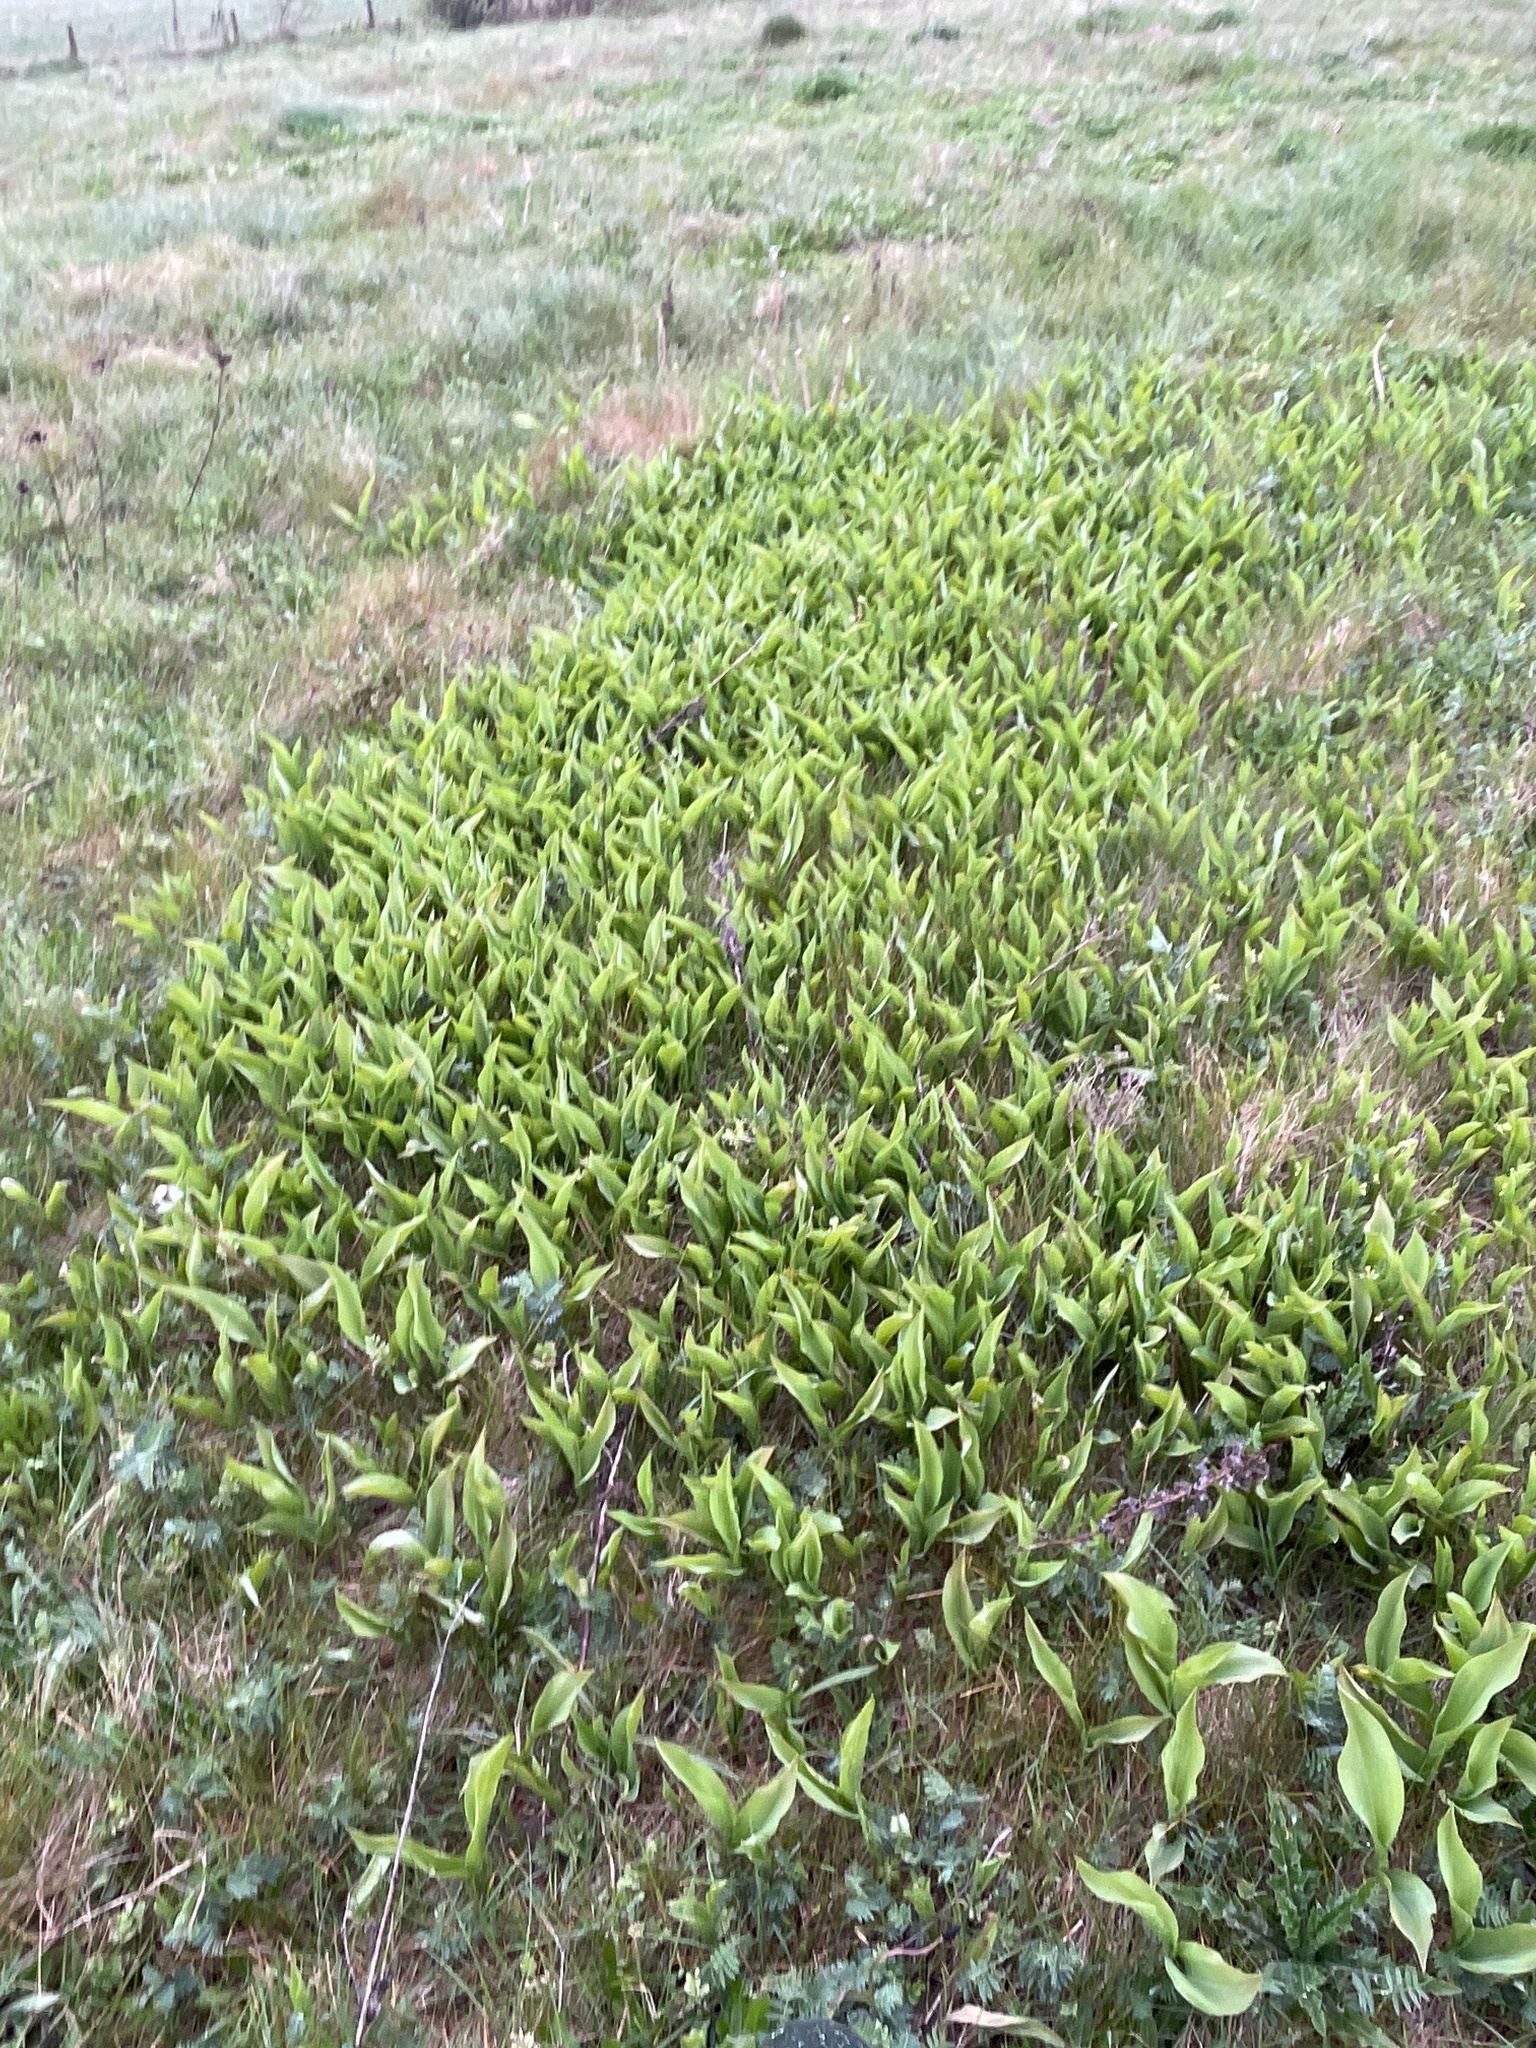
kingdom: Plantae
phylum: Tracheophyta
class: Liliopsida
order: Asparagales
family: Asparagaceae
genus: Convallaria
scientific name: Convallaria majalis
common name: Lily-of-the-valley
